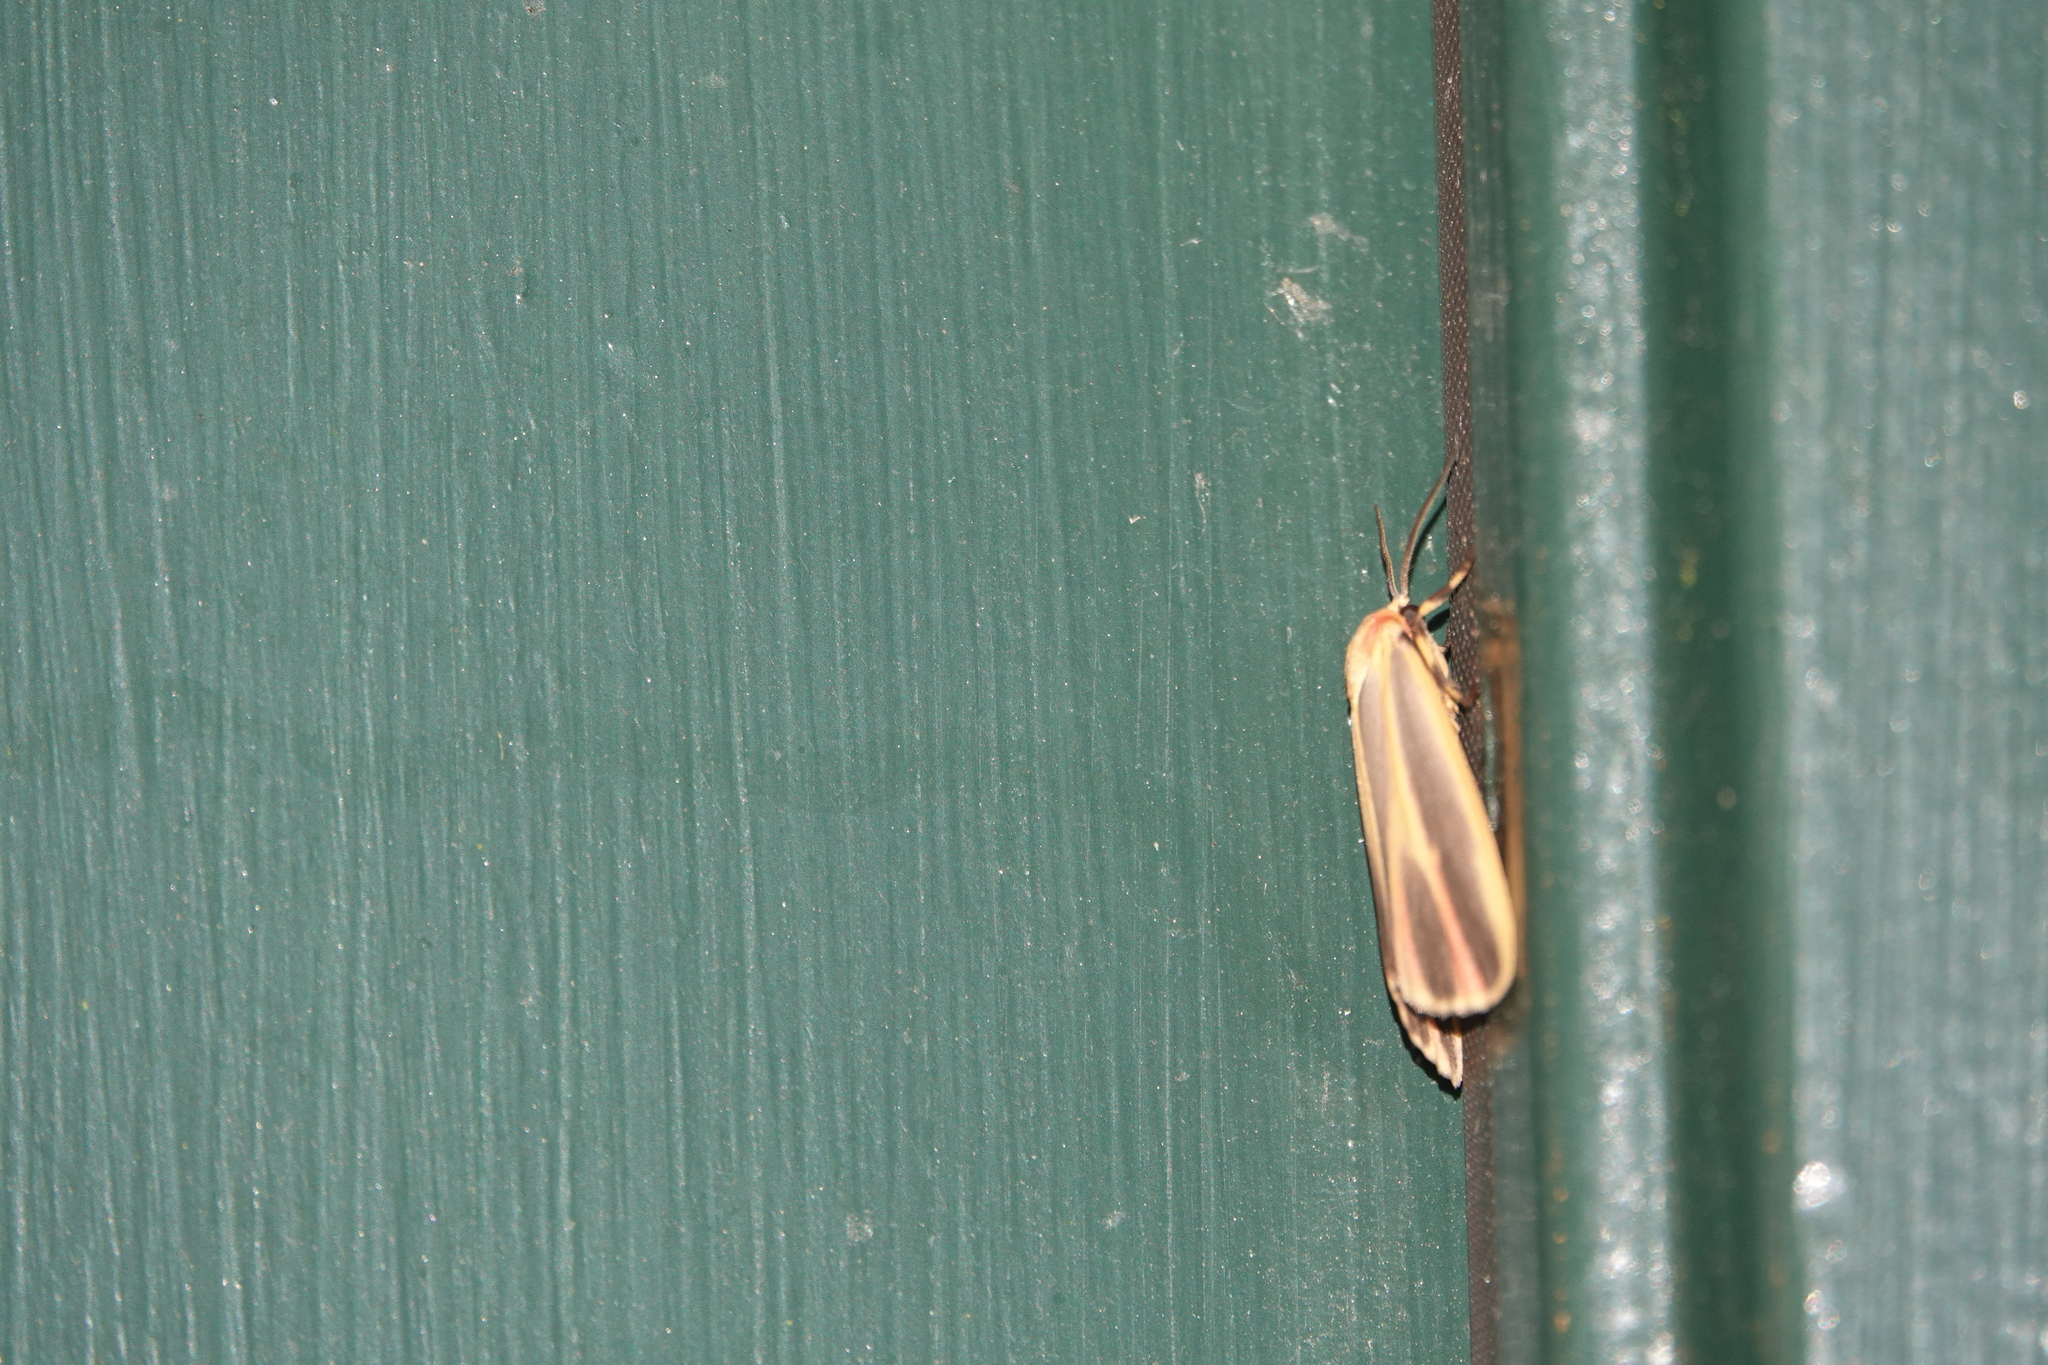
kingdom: Animalia
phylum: Arthropoda
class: Insecta
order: Lepidoptera
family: Erebidae
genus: Hypoprepia
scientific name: Hypoprepia fucosa
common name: Painted lichen moth
